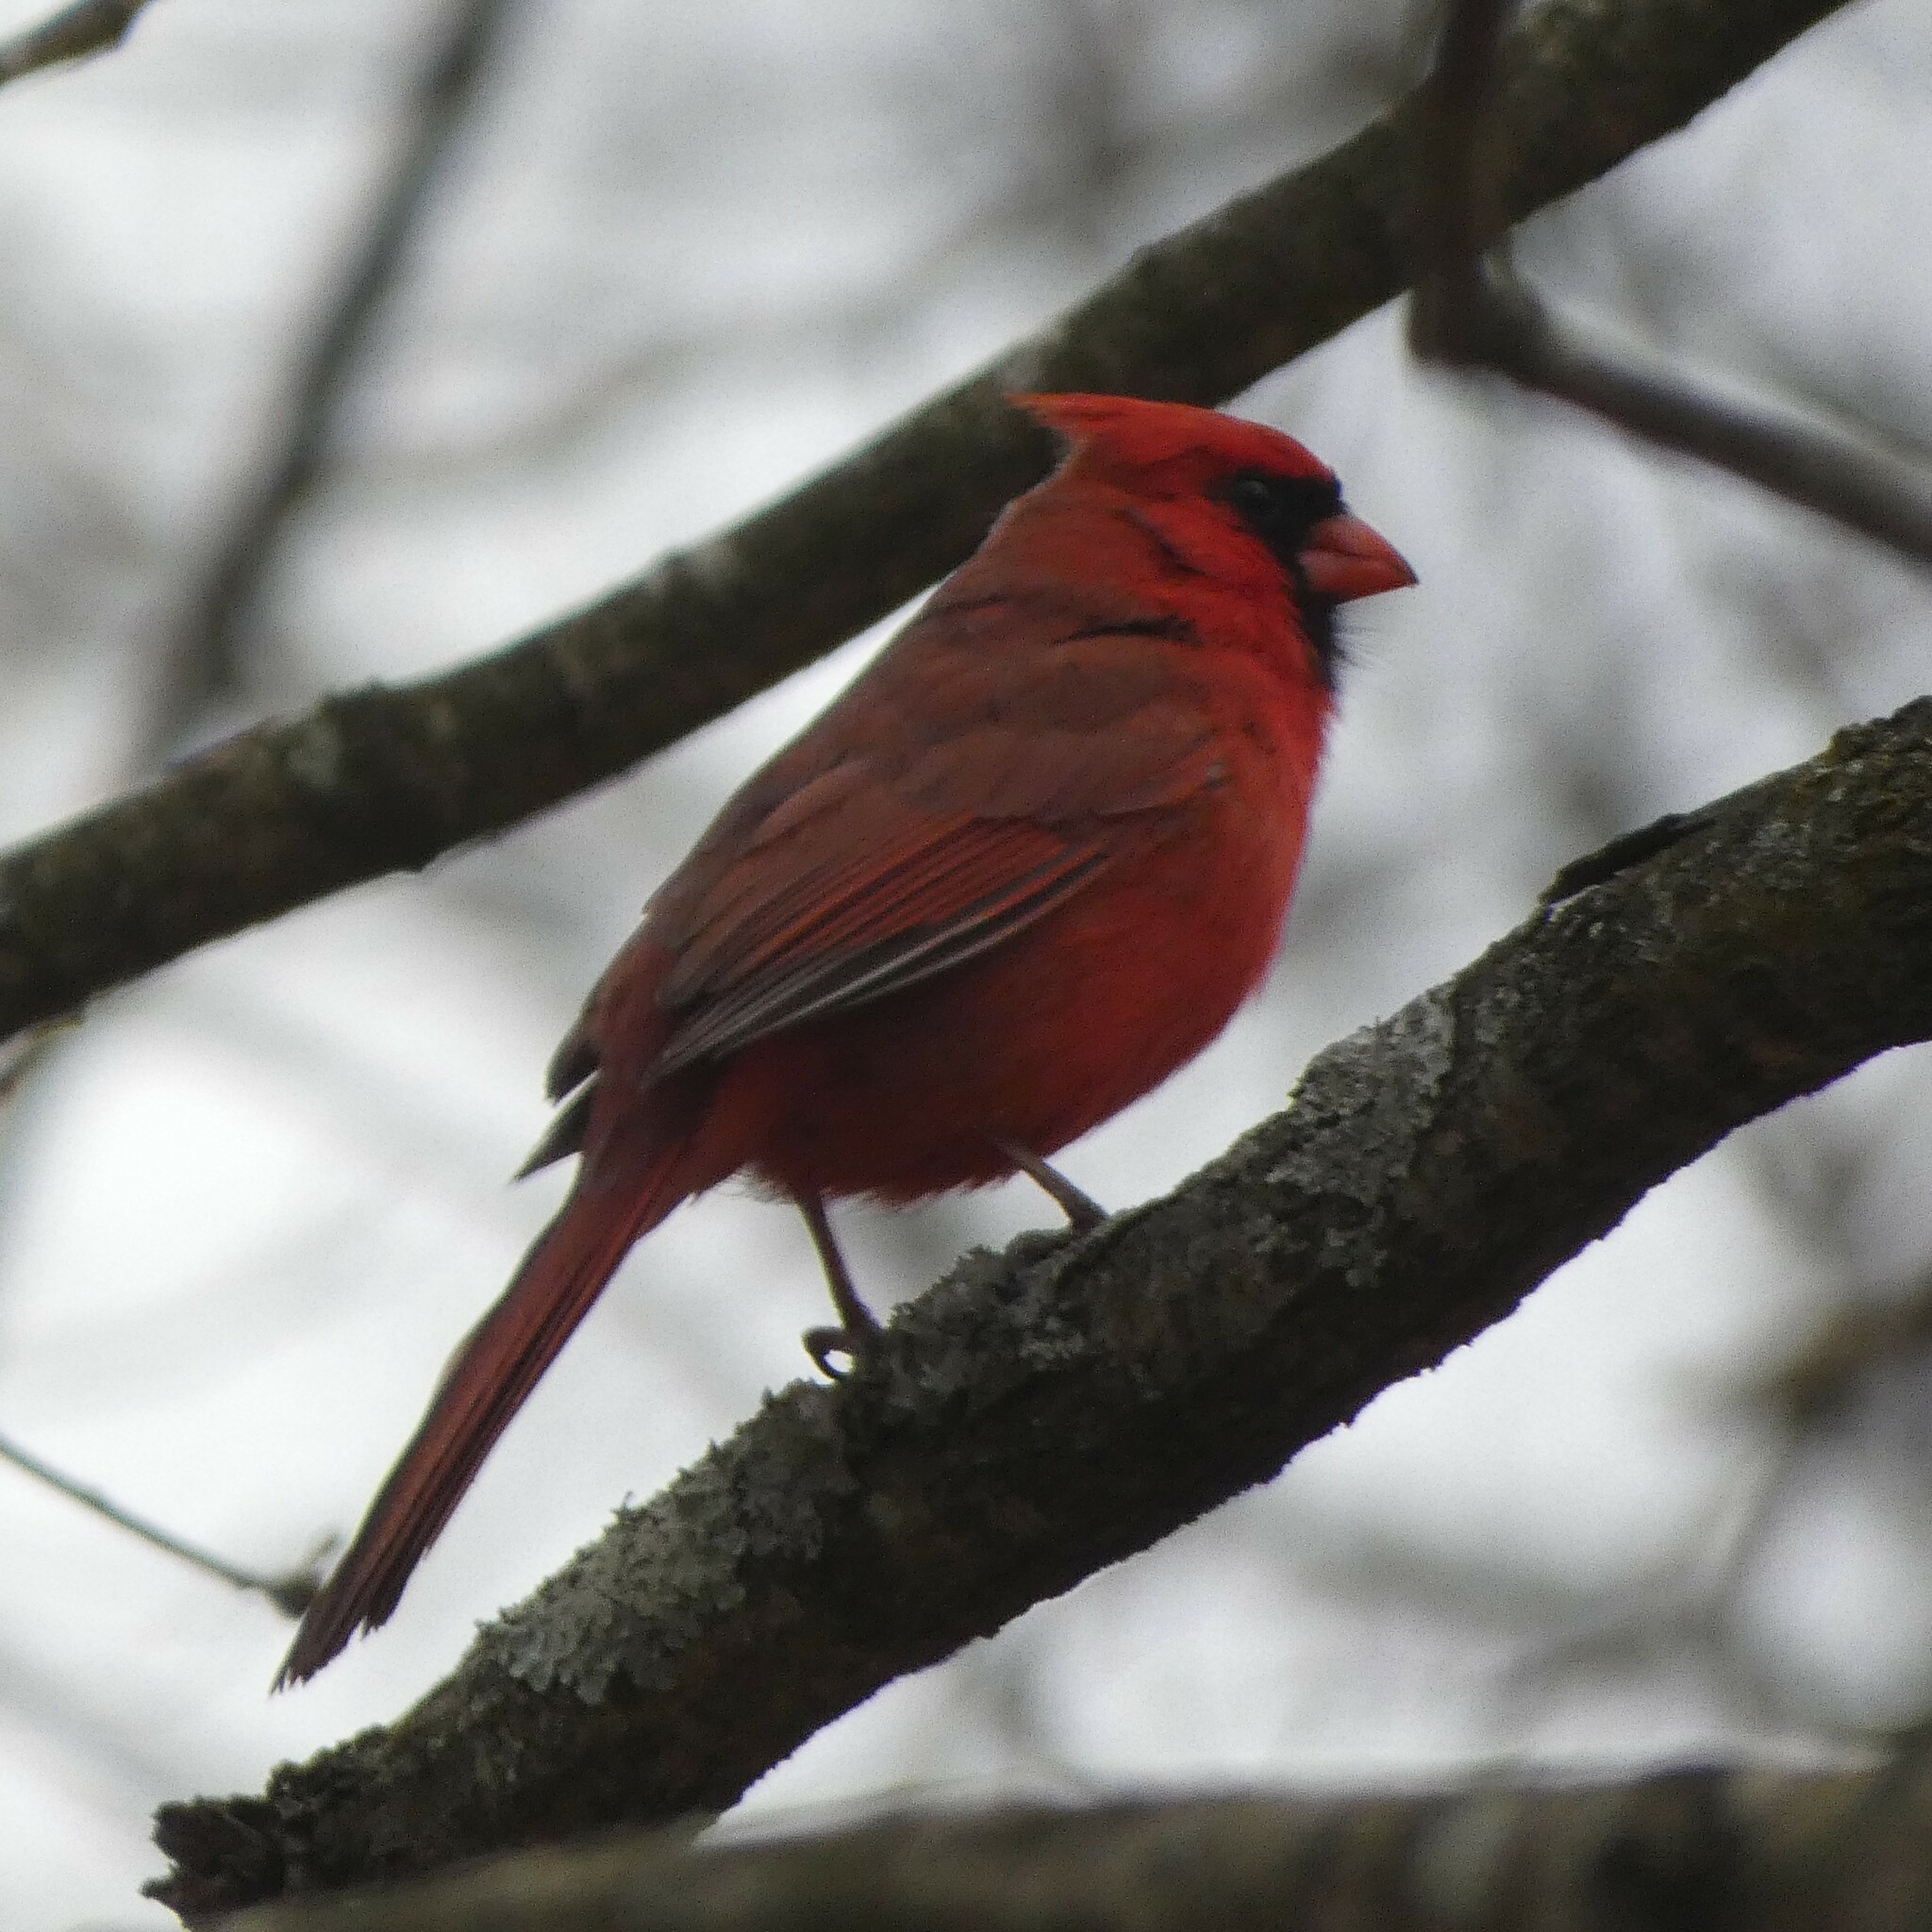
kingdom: Animalia
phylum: Chordata
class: Aves
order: Passeriformes
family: Cardinalidae
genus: Cardinalis
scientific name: Cardinalis cardinalis
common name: Northern cardinal
